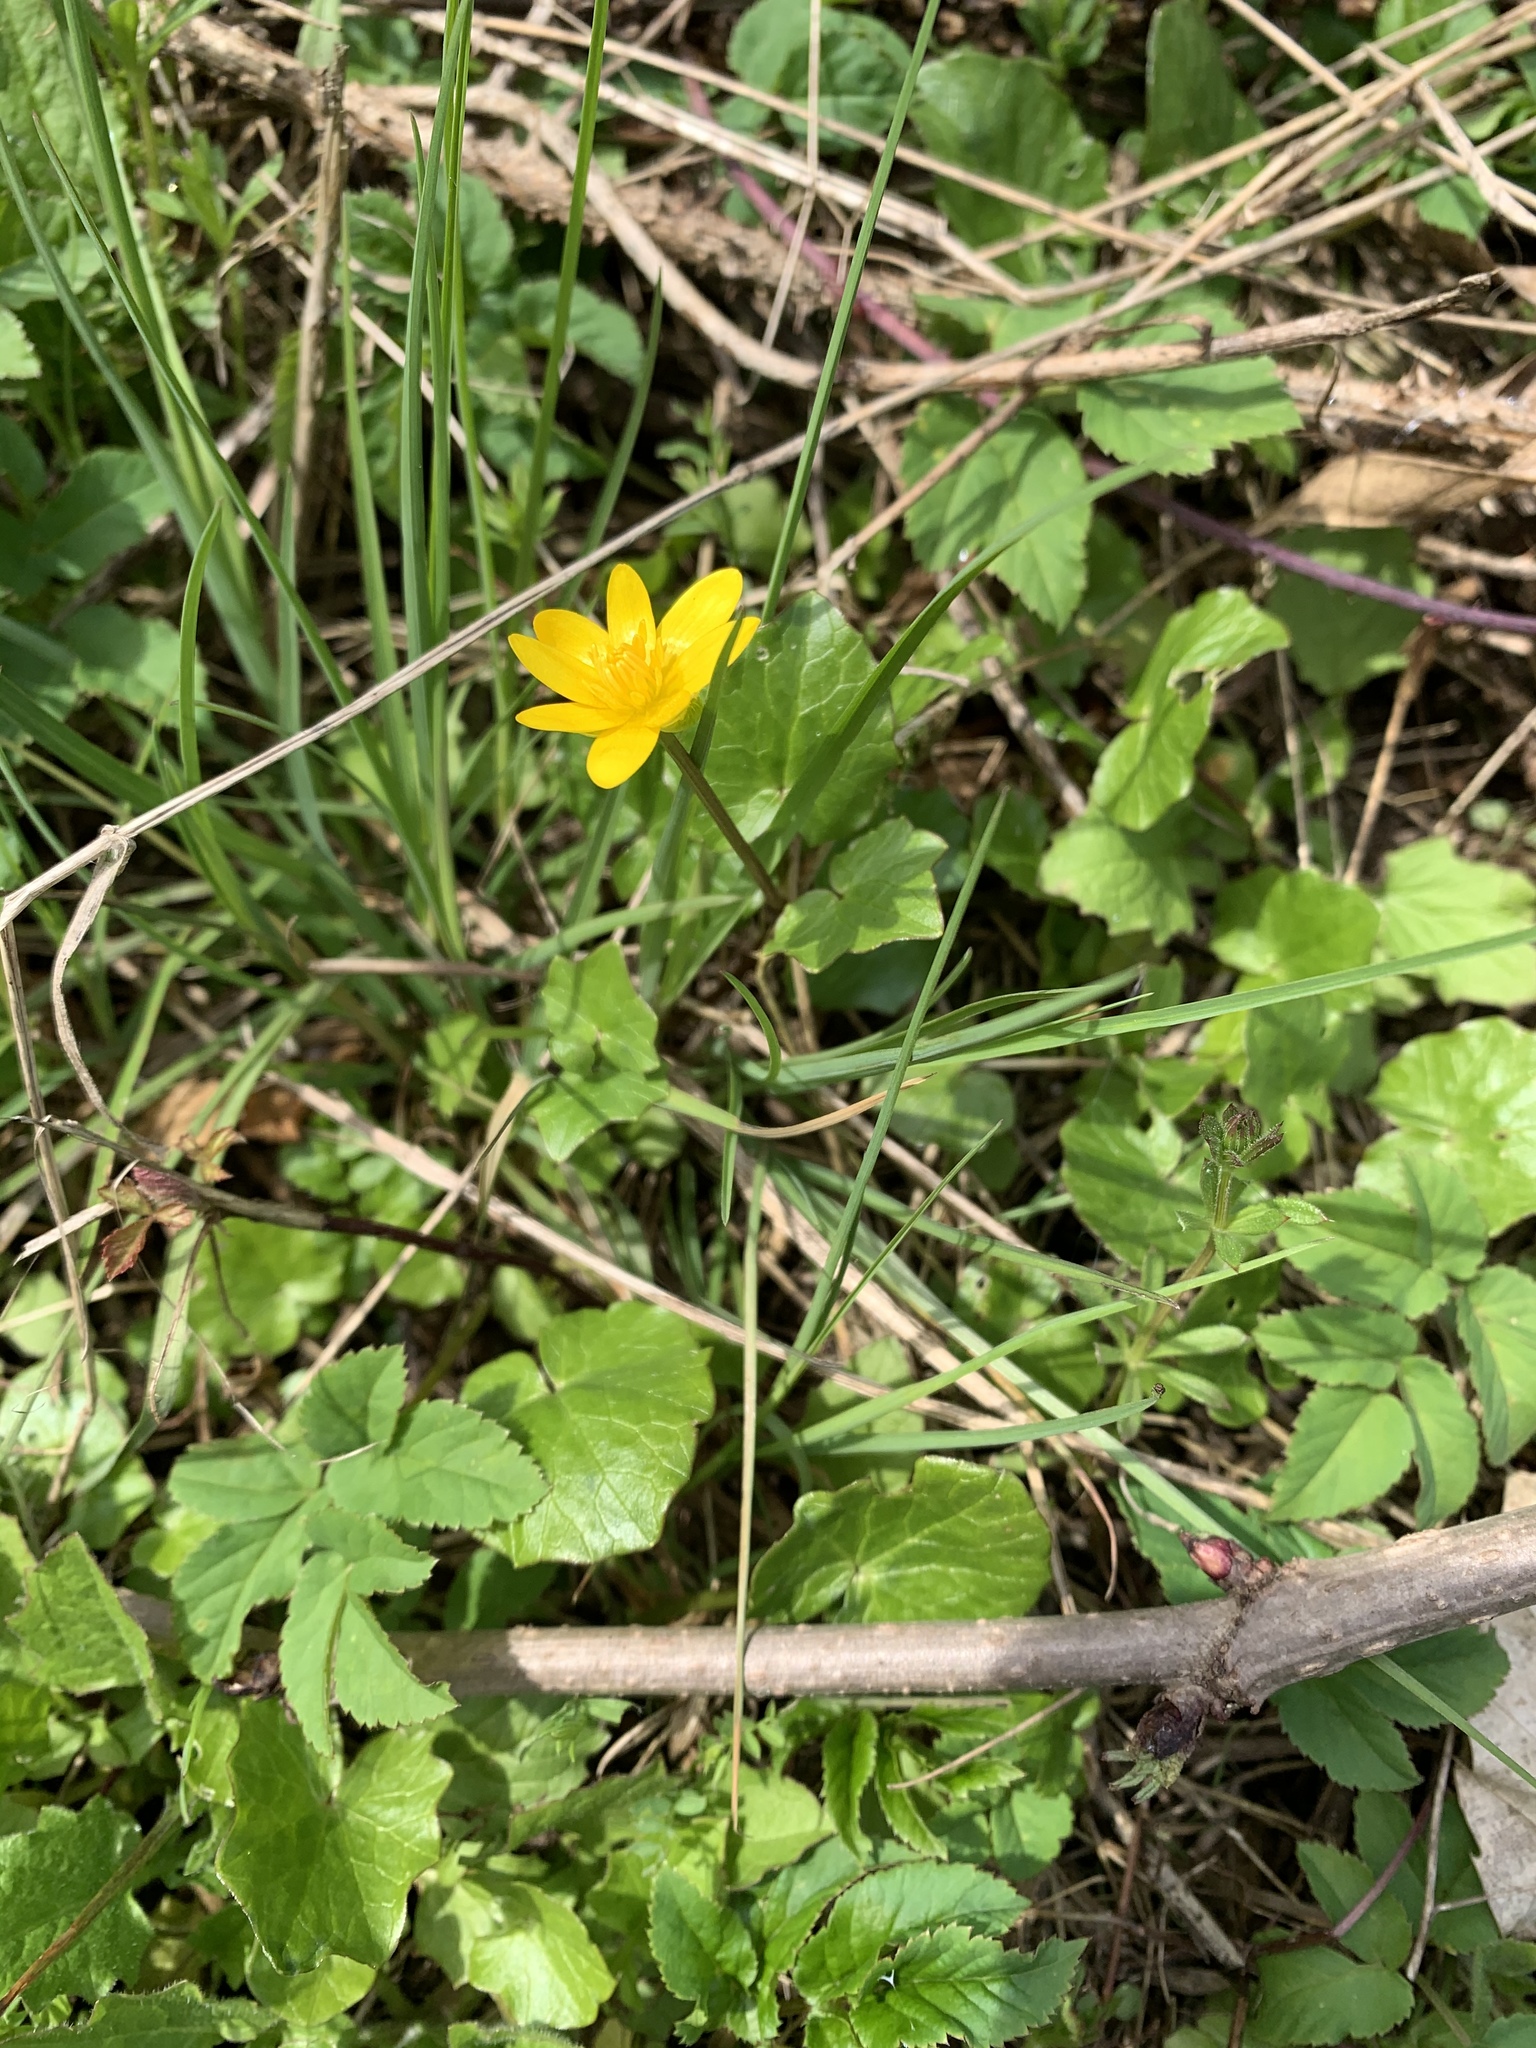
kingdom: Plantae
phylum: Tracheophyta
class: Magnoliopsida
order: Ranunculales
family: Ranunculaceae
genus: Ficaria
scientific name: Ficaria verna
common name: Lesser celandine
